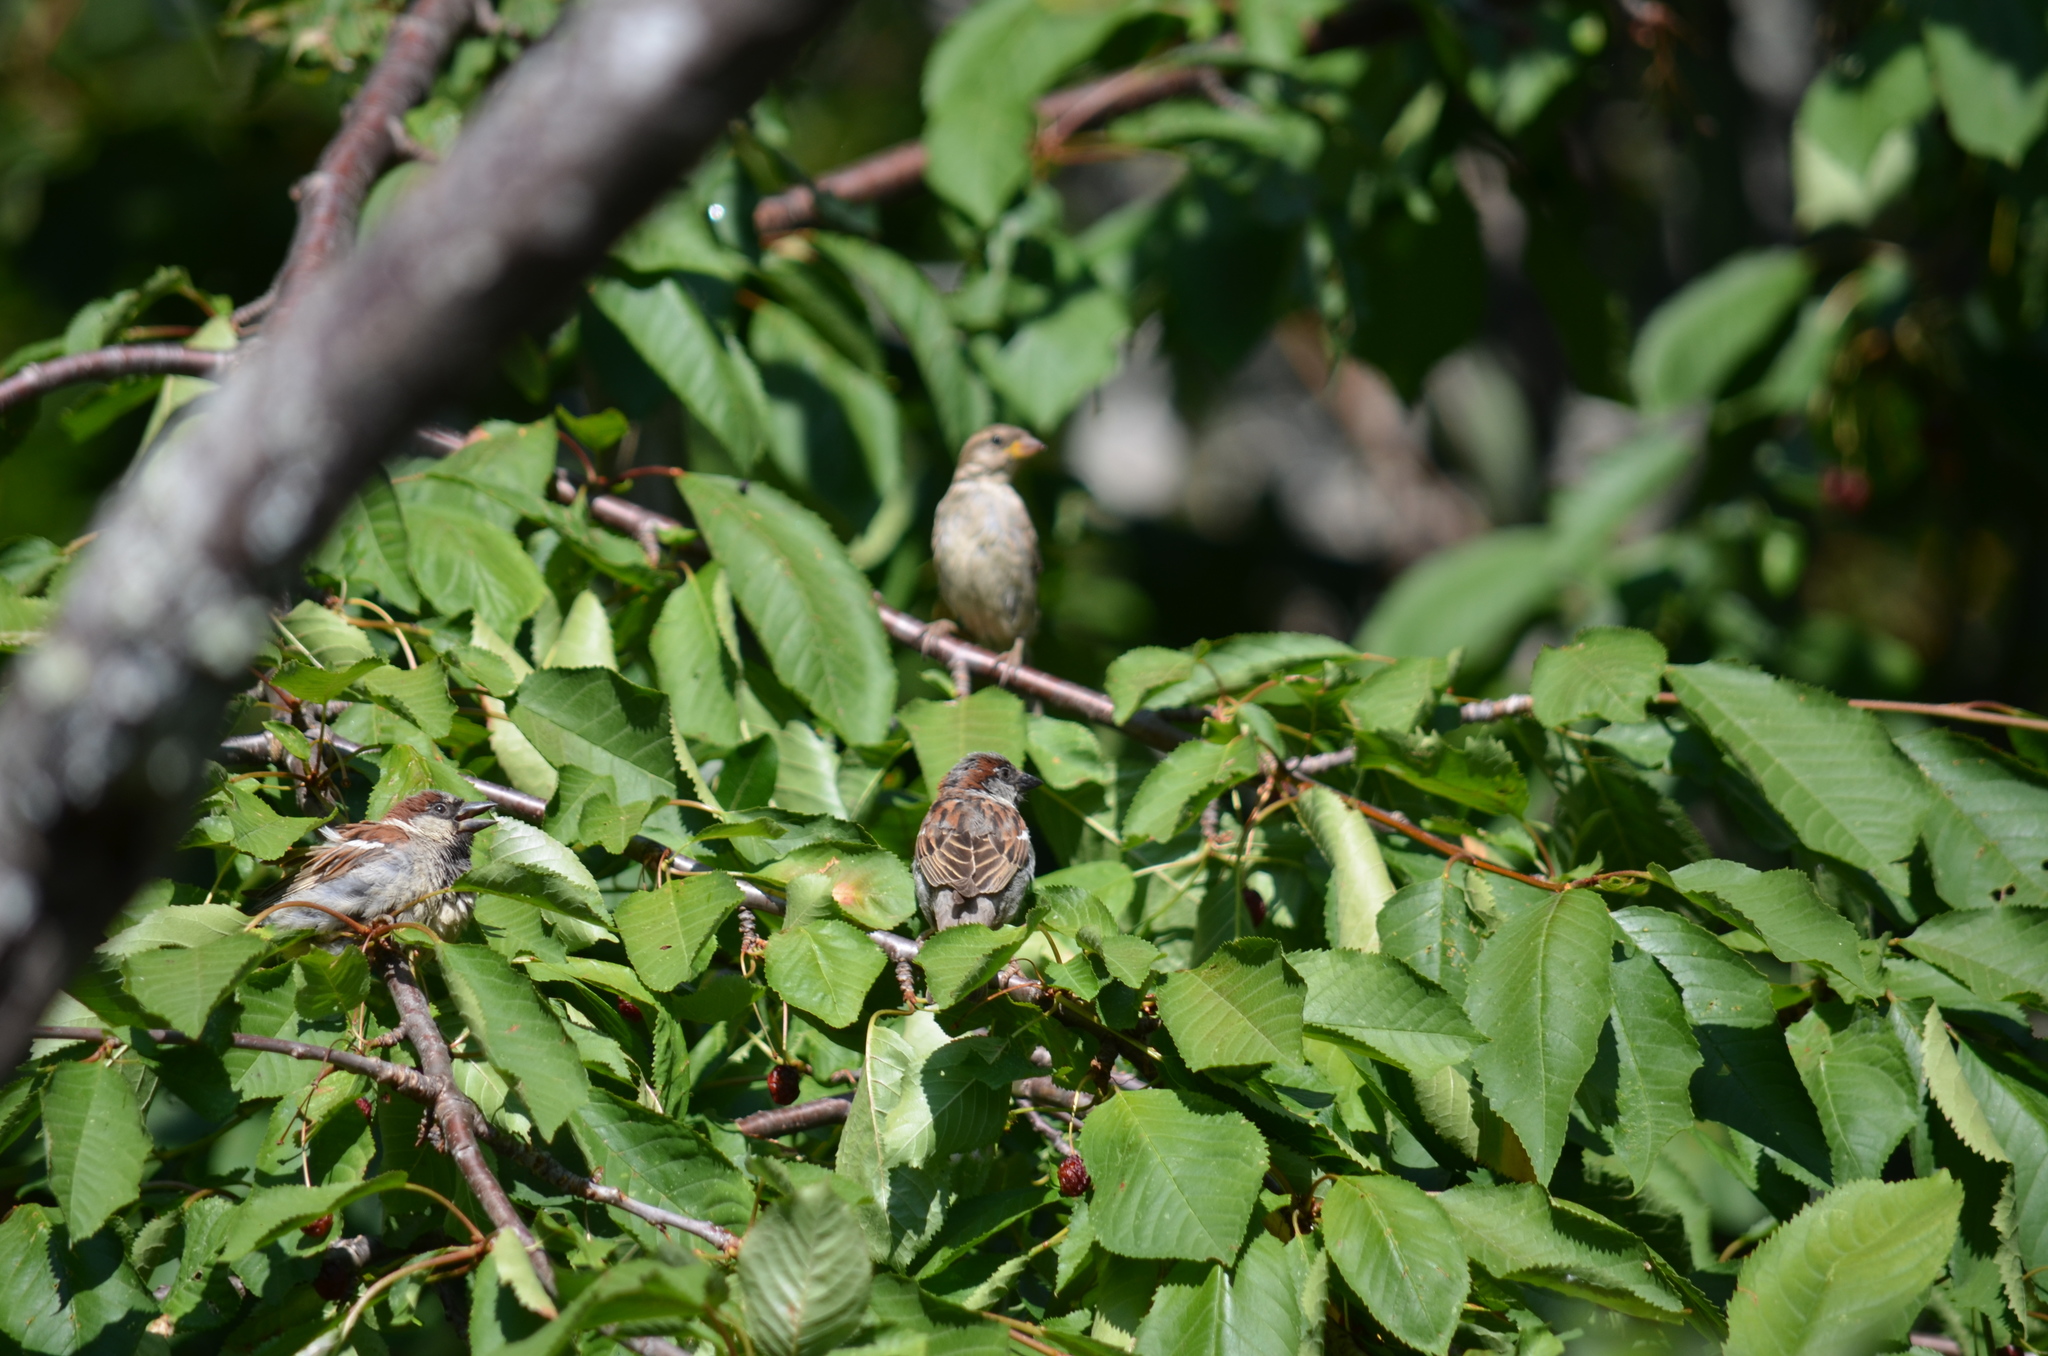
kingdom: Animalia
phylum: Chordata
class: Aves
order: Passeriformes
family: Passeridae
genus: Passer
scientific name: Passer domesticus
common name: House sparrow
